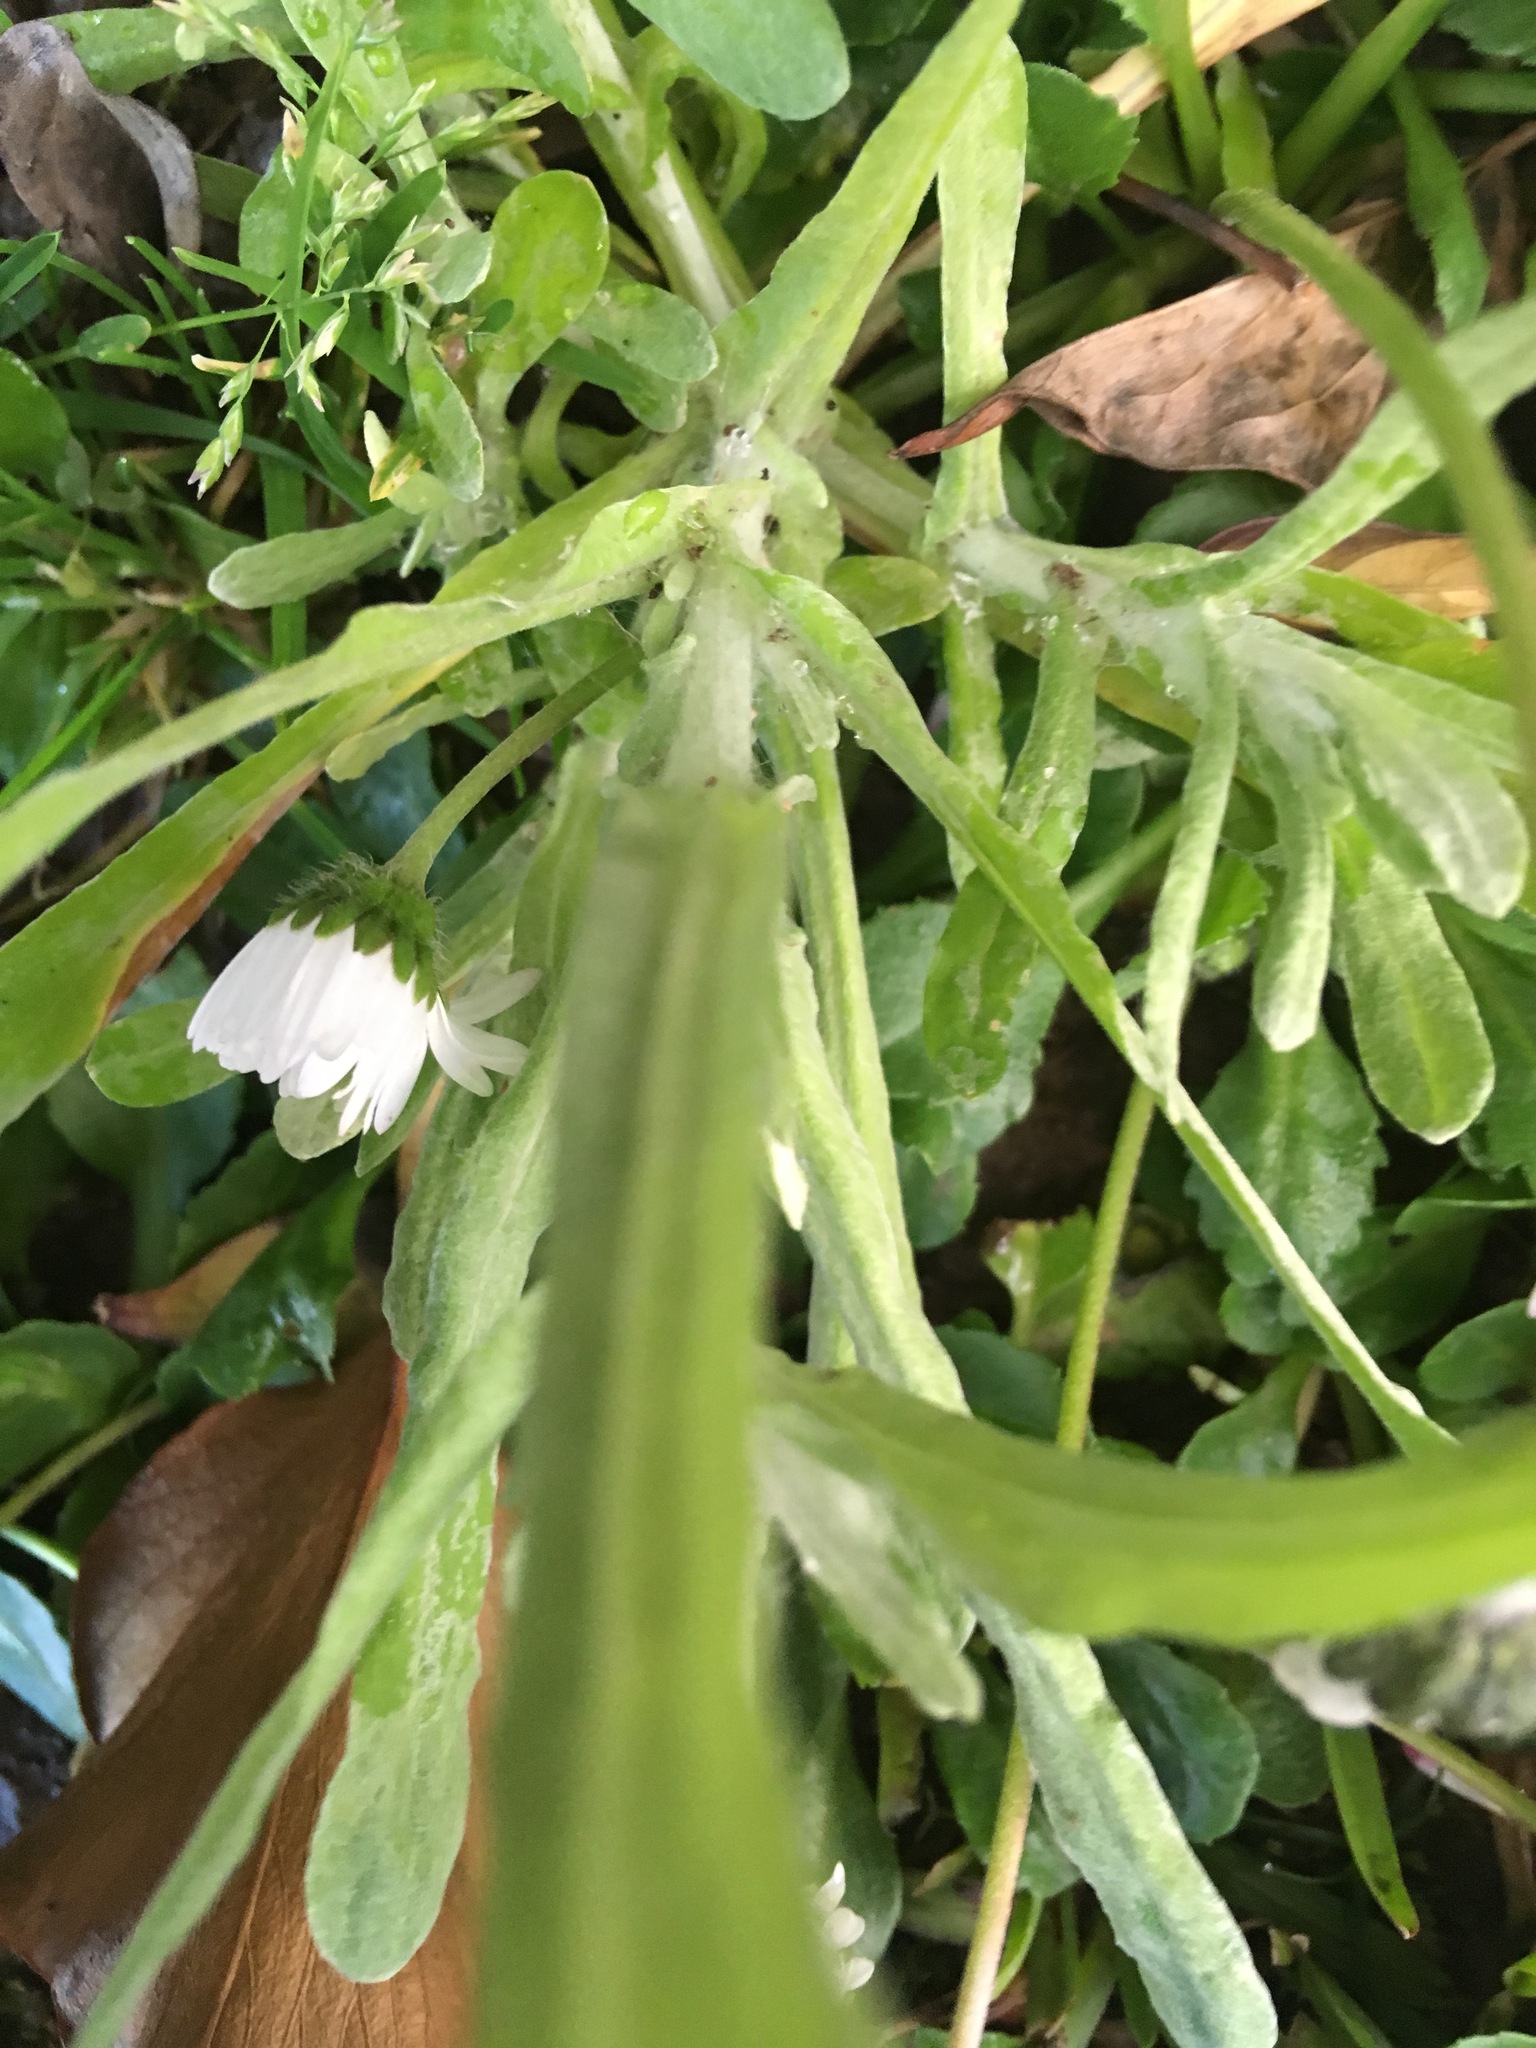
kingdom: Plantae
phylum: Tracheophyta
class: Magnoliopsida
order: Asterales
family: Asteraceae
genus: Helichrysum
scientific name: Helichrysum luteoalbum
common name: Daisy
